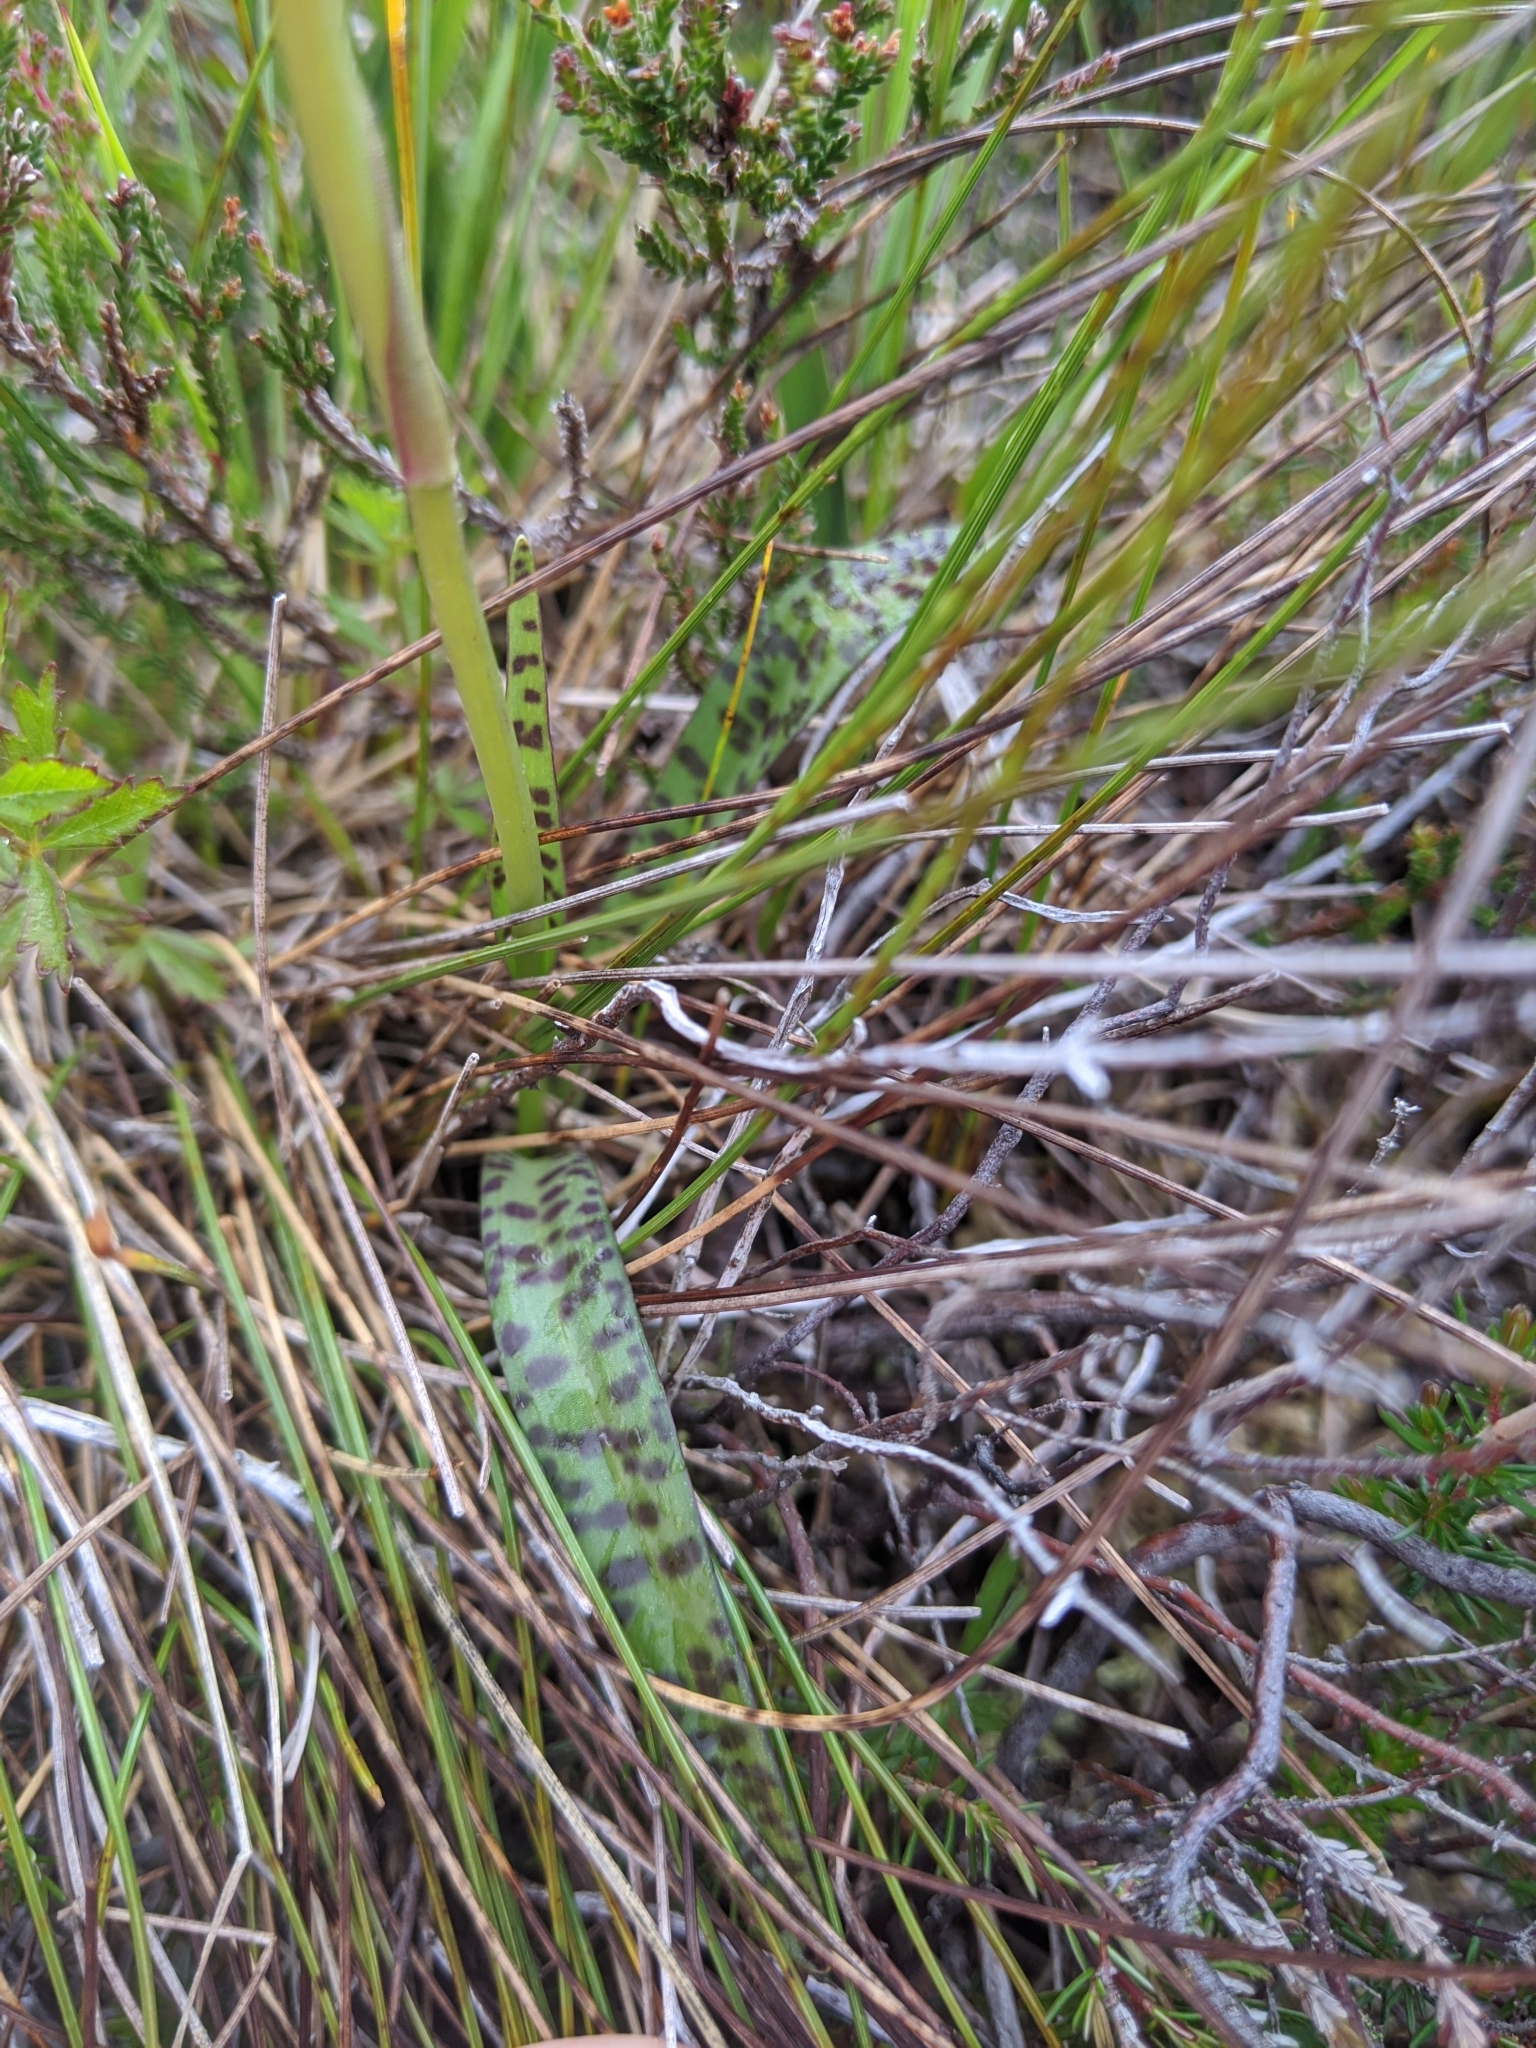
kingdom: Plantae
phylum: Tracheophyta
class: Liliopsida
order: Asparagales
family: Orchidaceae
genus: Dactylorhiza
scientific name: Dactylorhiza maculata
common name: Heath spotted-orchid
